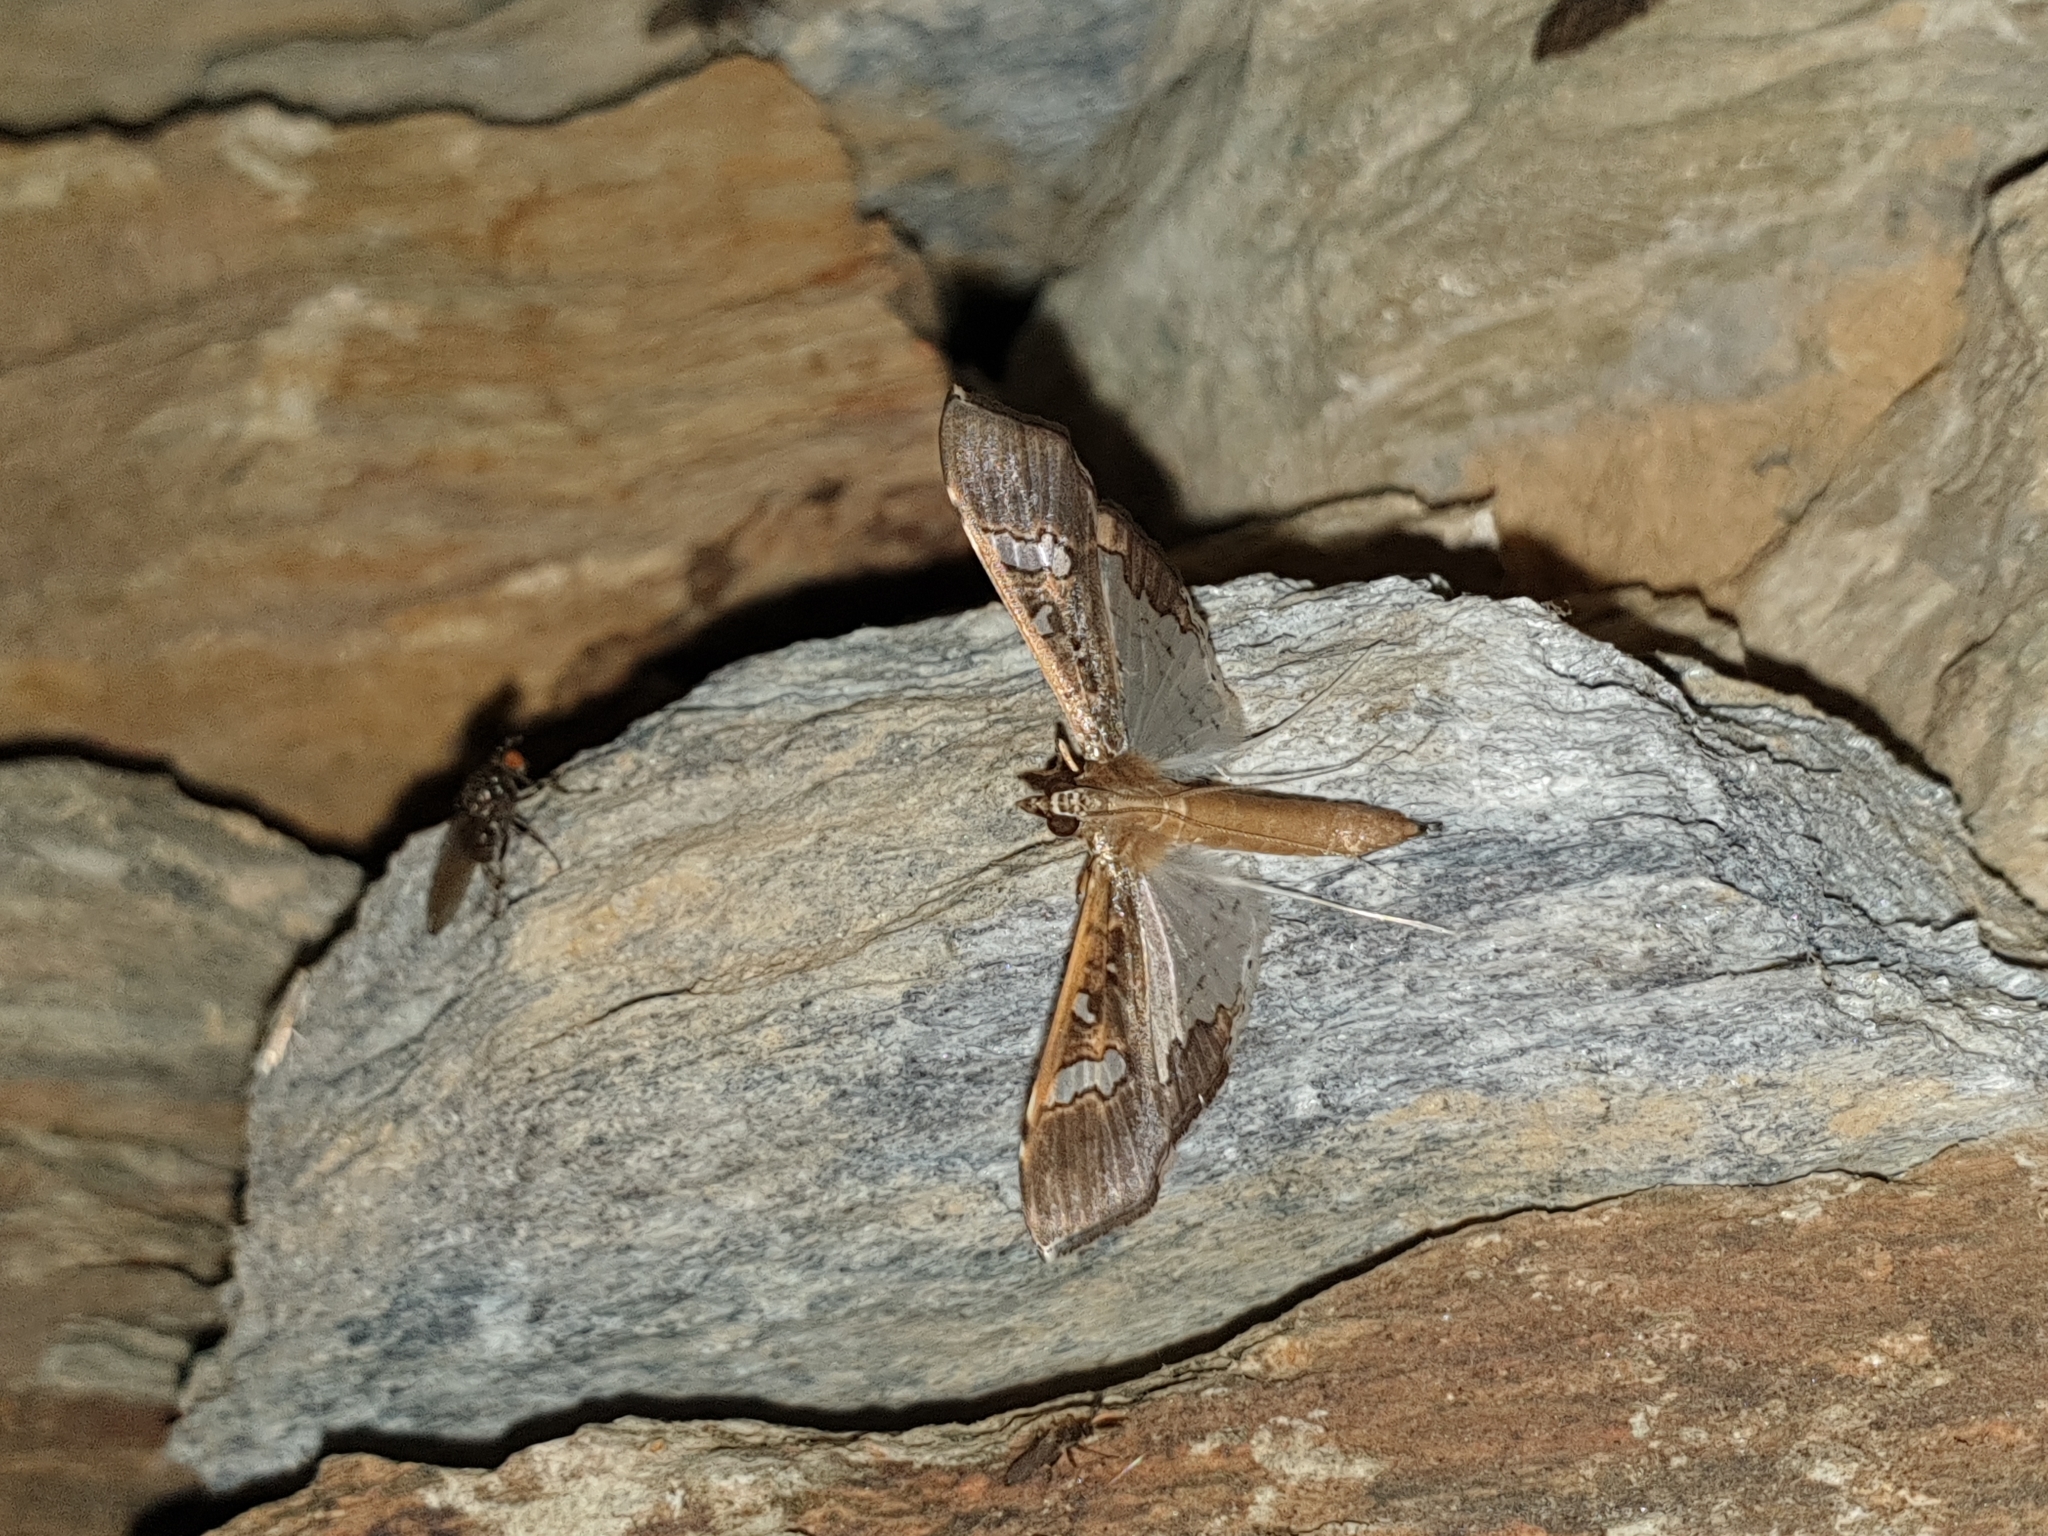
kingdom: Animalia
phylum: Arthropoda
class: Insecta
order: Lepidoptera
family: Crambidae
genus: Maruca
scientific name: Maruca vitrata
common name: Maruca pod borer
